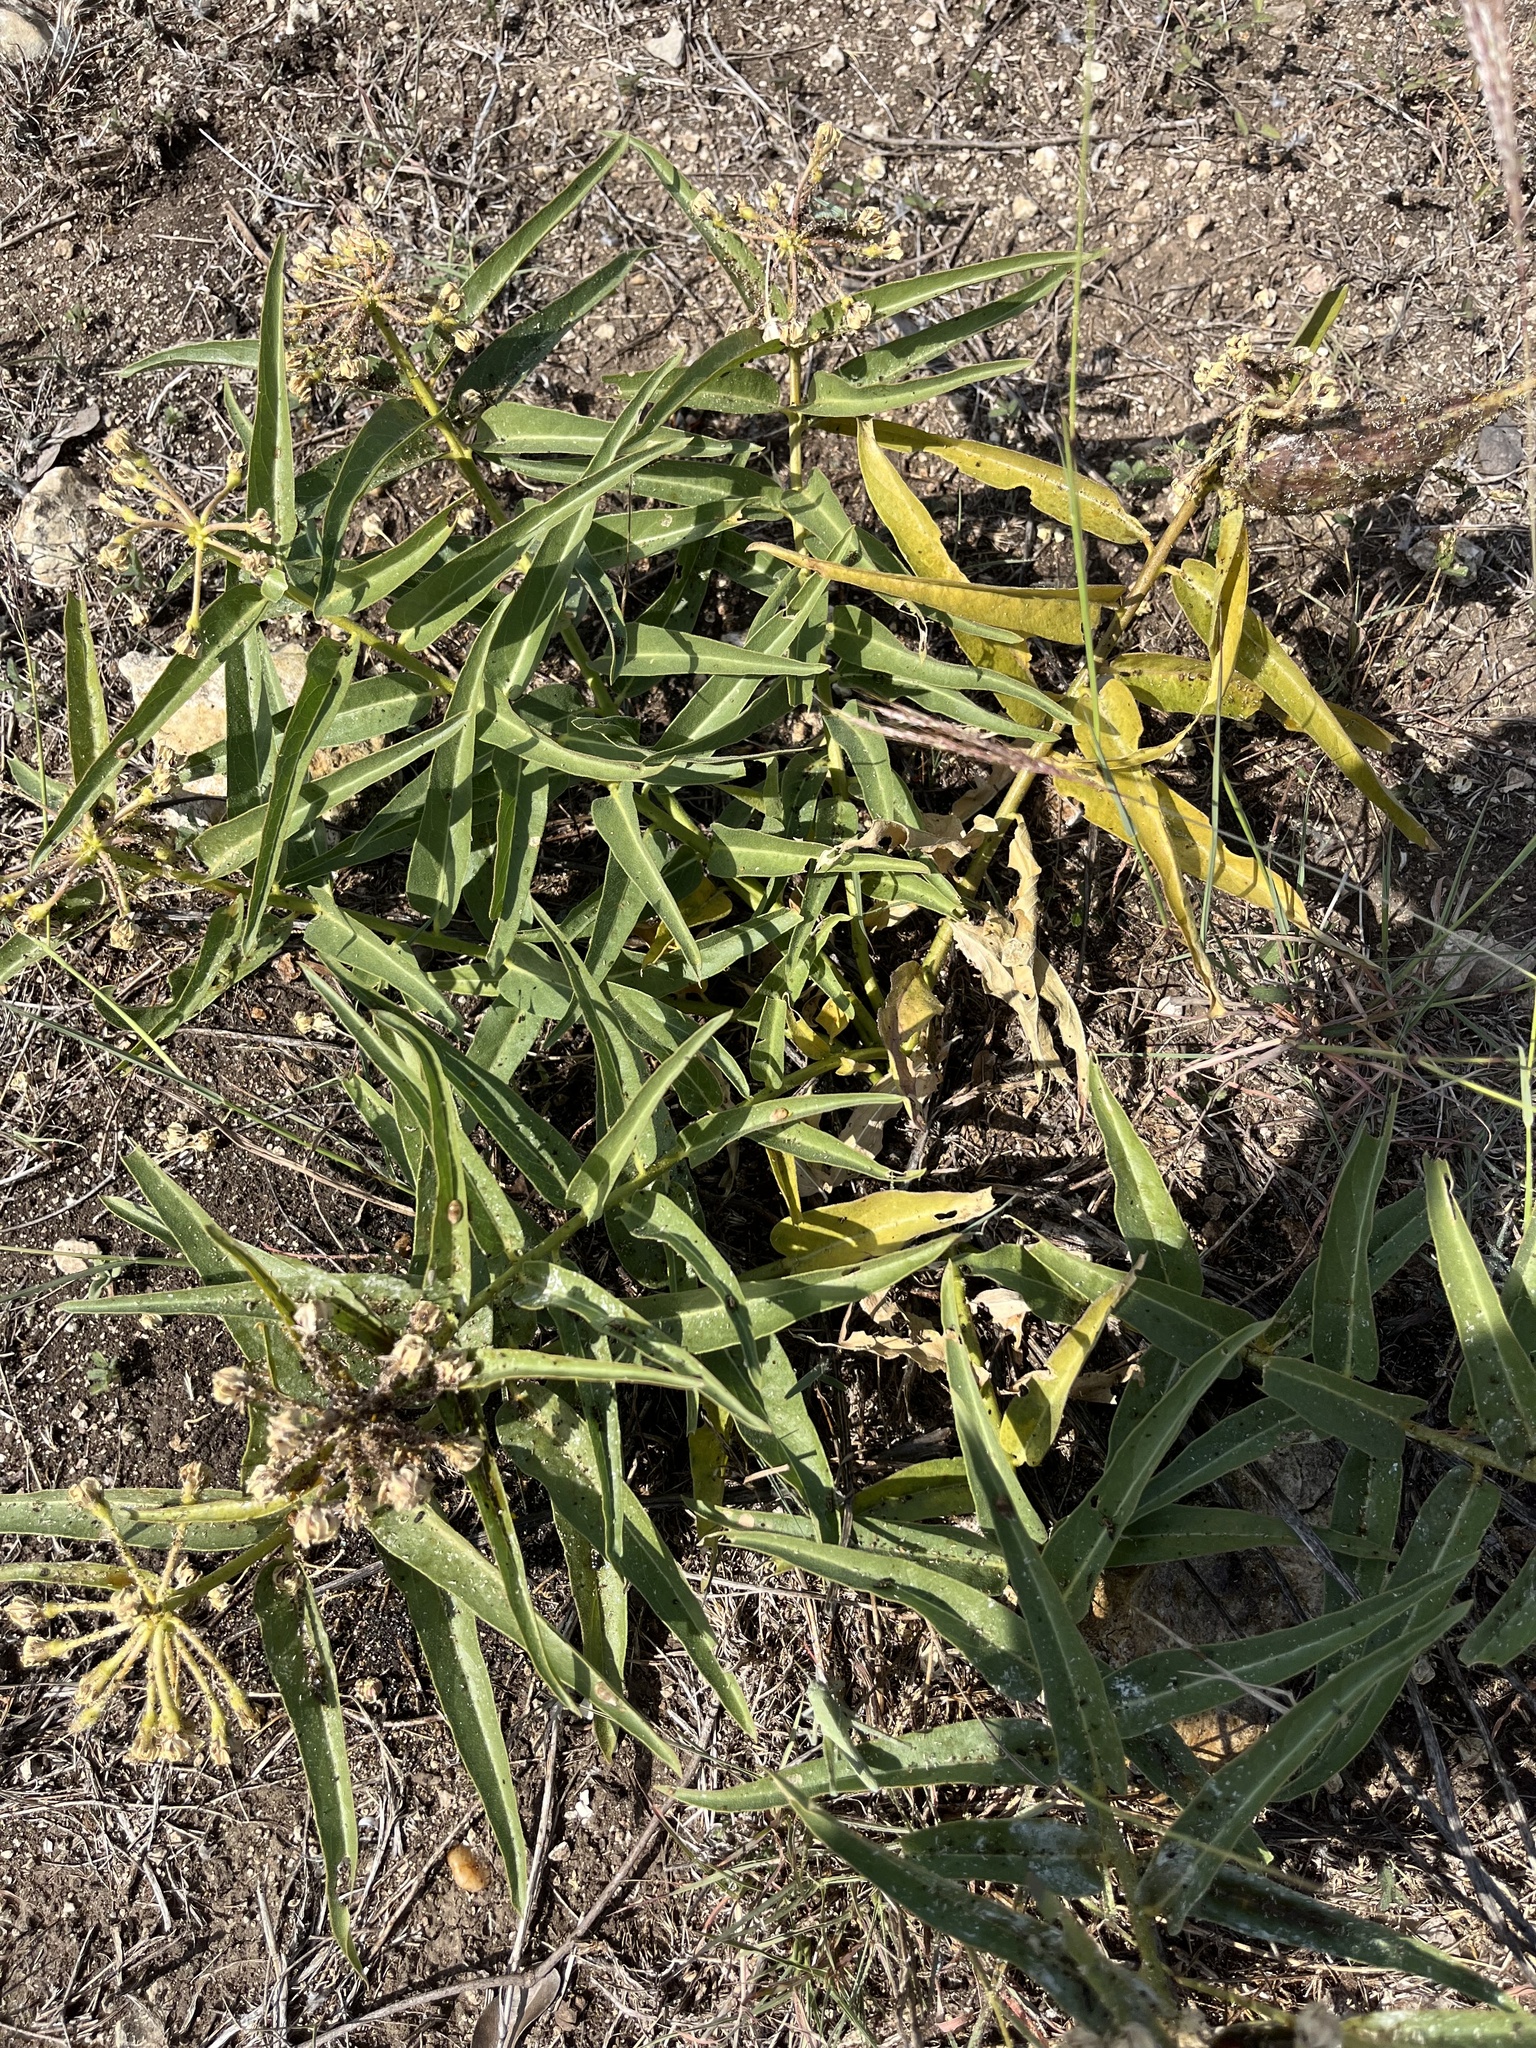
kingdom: Plantae
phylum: Tracheophyta
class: Magnoliopsida
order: Gentianales
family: Apocynaceae
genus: Asclepias
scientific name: Asclepias asperula
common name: Antelope horns
